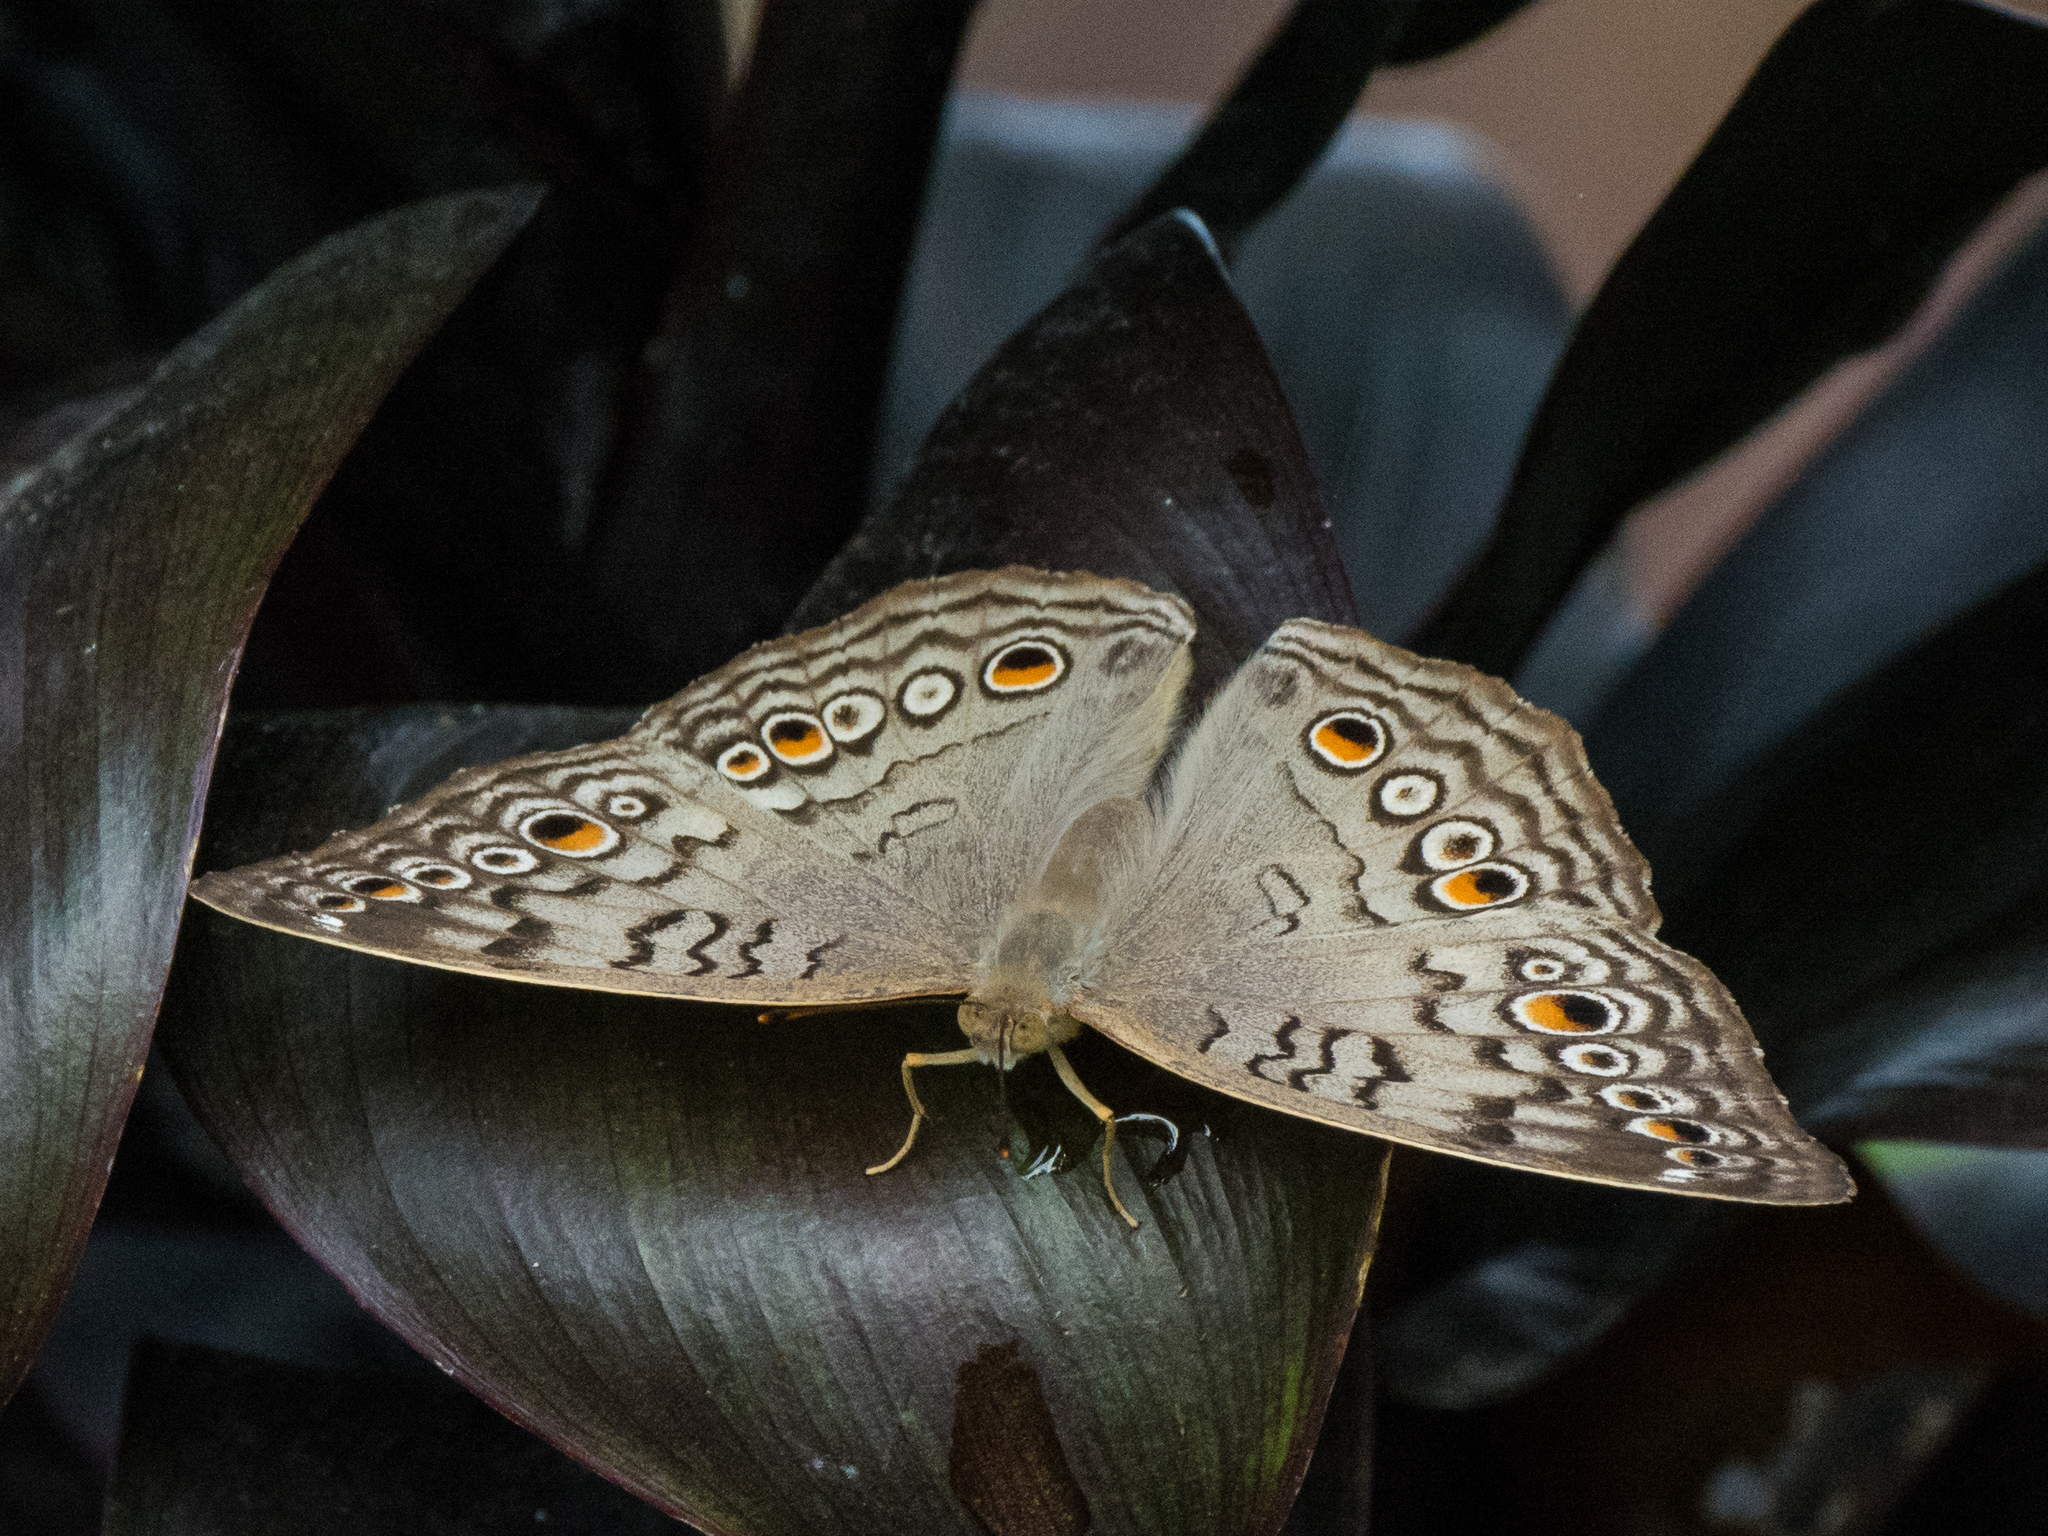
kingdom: Animalia
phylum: Arthropoda
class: Insecta
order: Lepidoptera
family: Nymphalidae
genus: Junonia
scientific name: Junonia atlites
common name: Grey pansy
